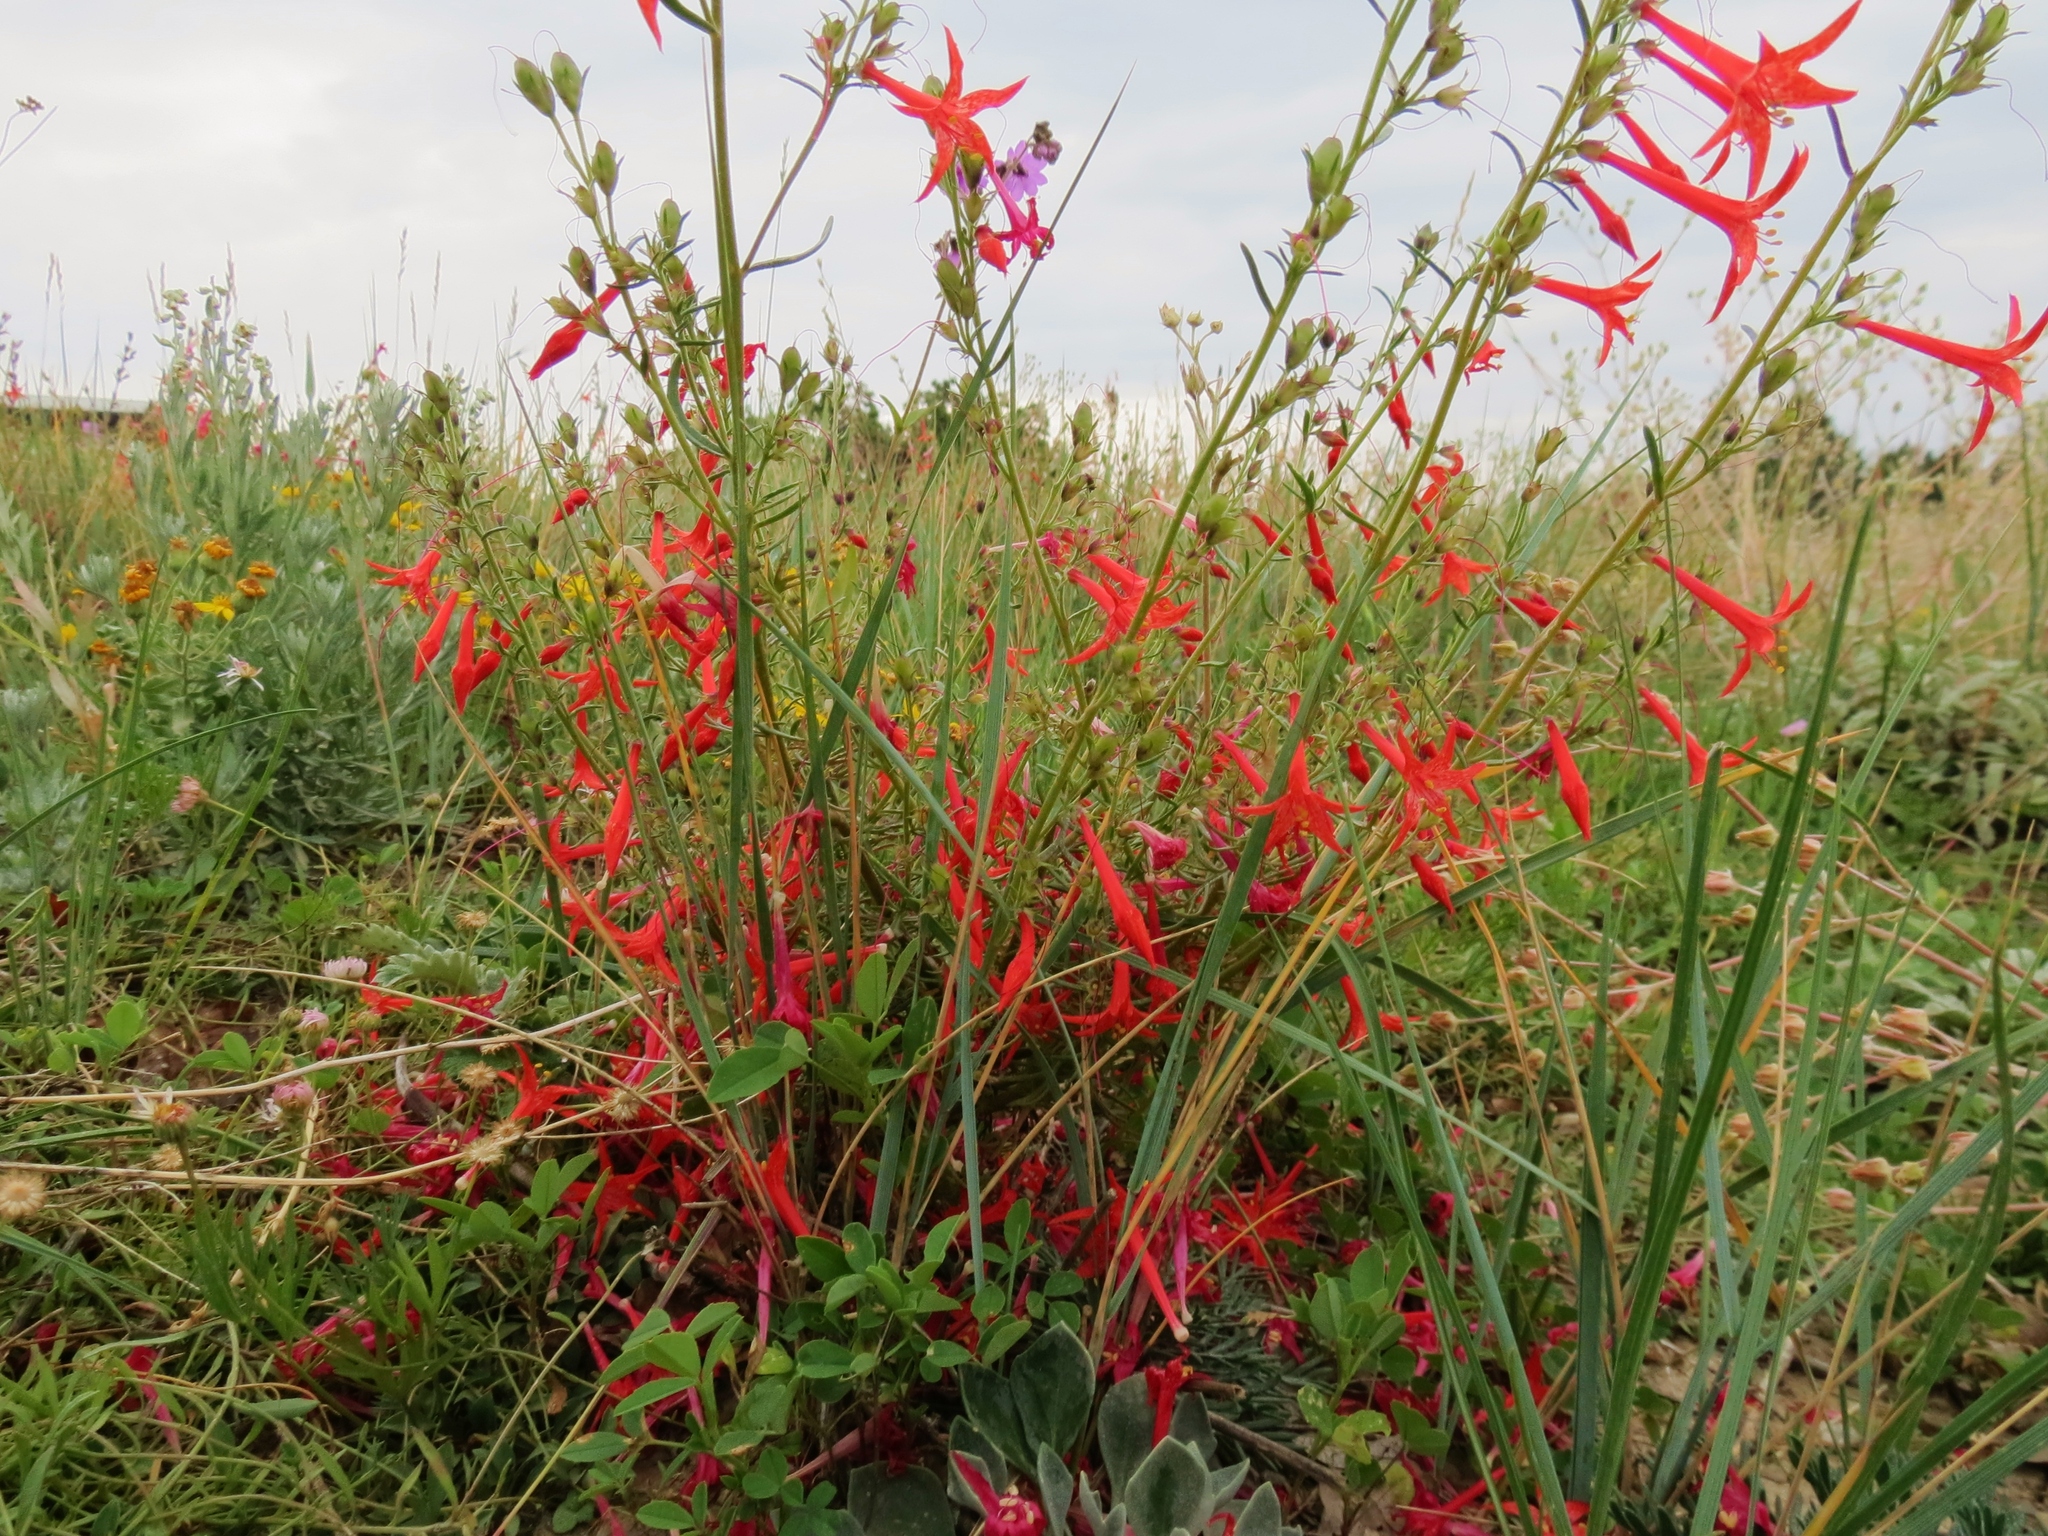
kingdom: Plantae
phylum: Tracheophyta
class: Magnoliopsida
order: Ericales
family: Polemoniaceae
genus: Ipomopsis
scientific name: Ipomopsis aggregata
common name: Scarlet gilia
